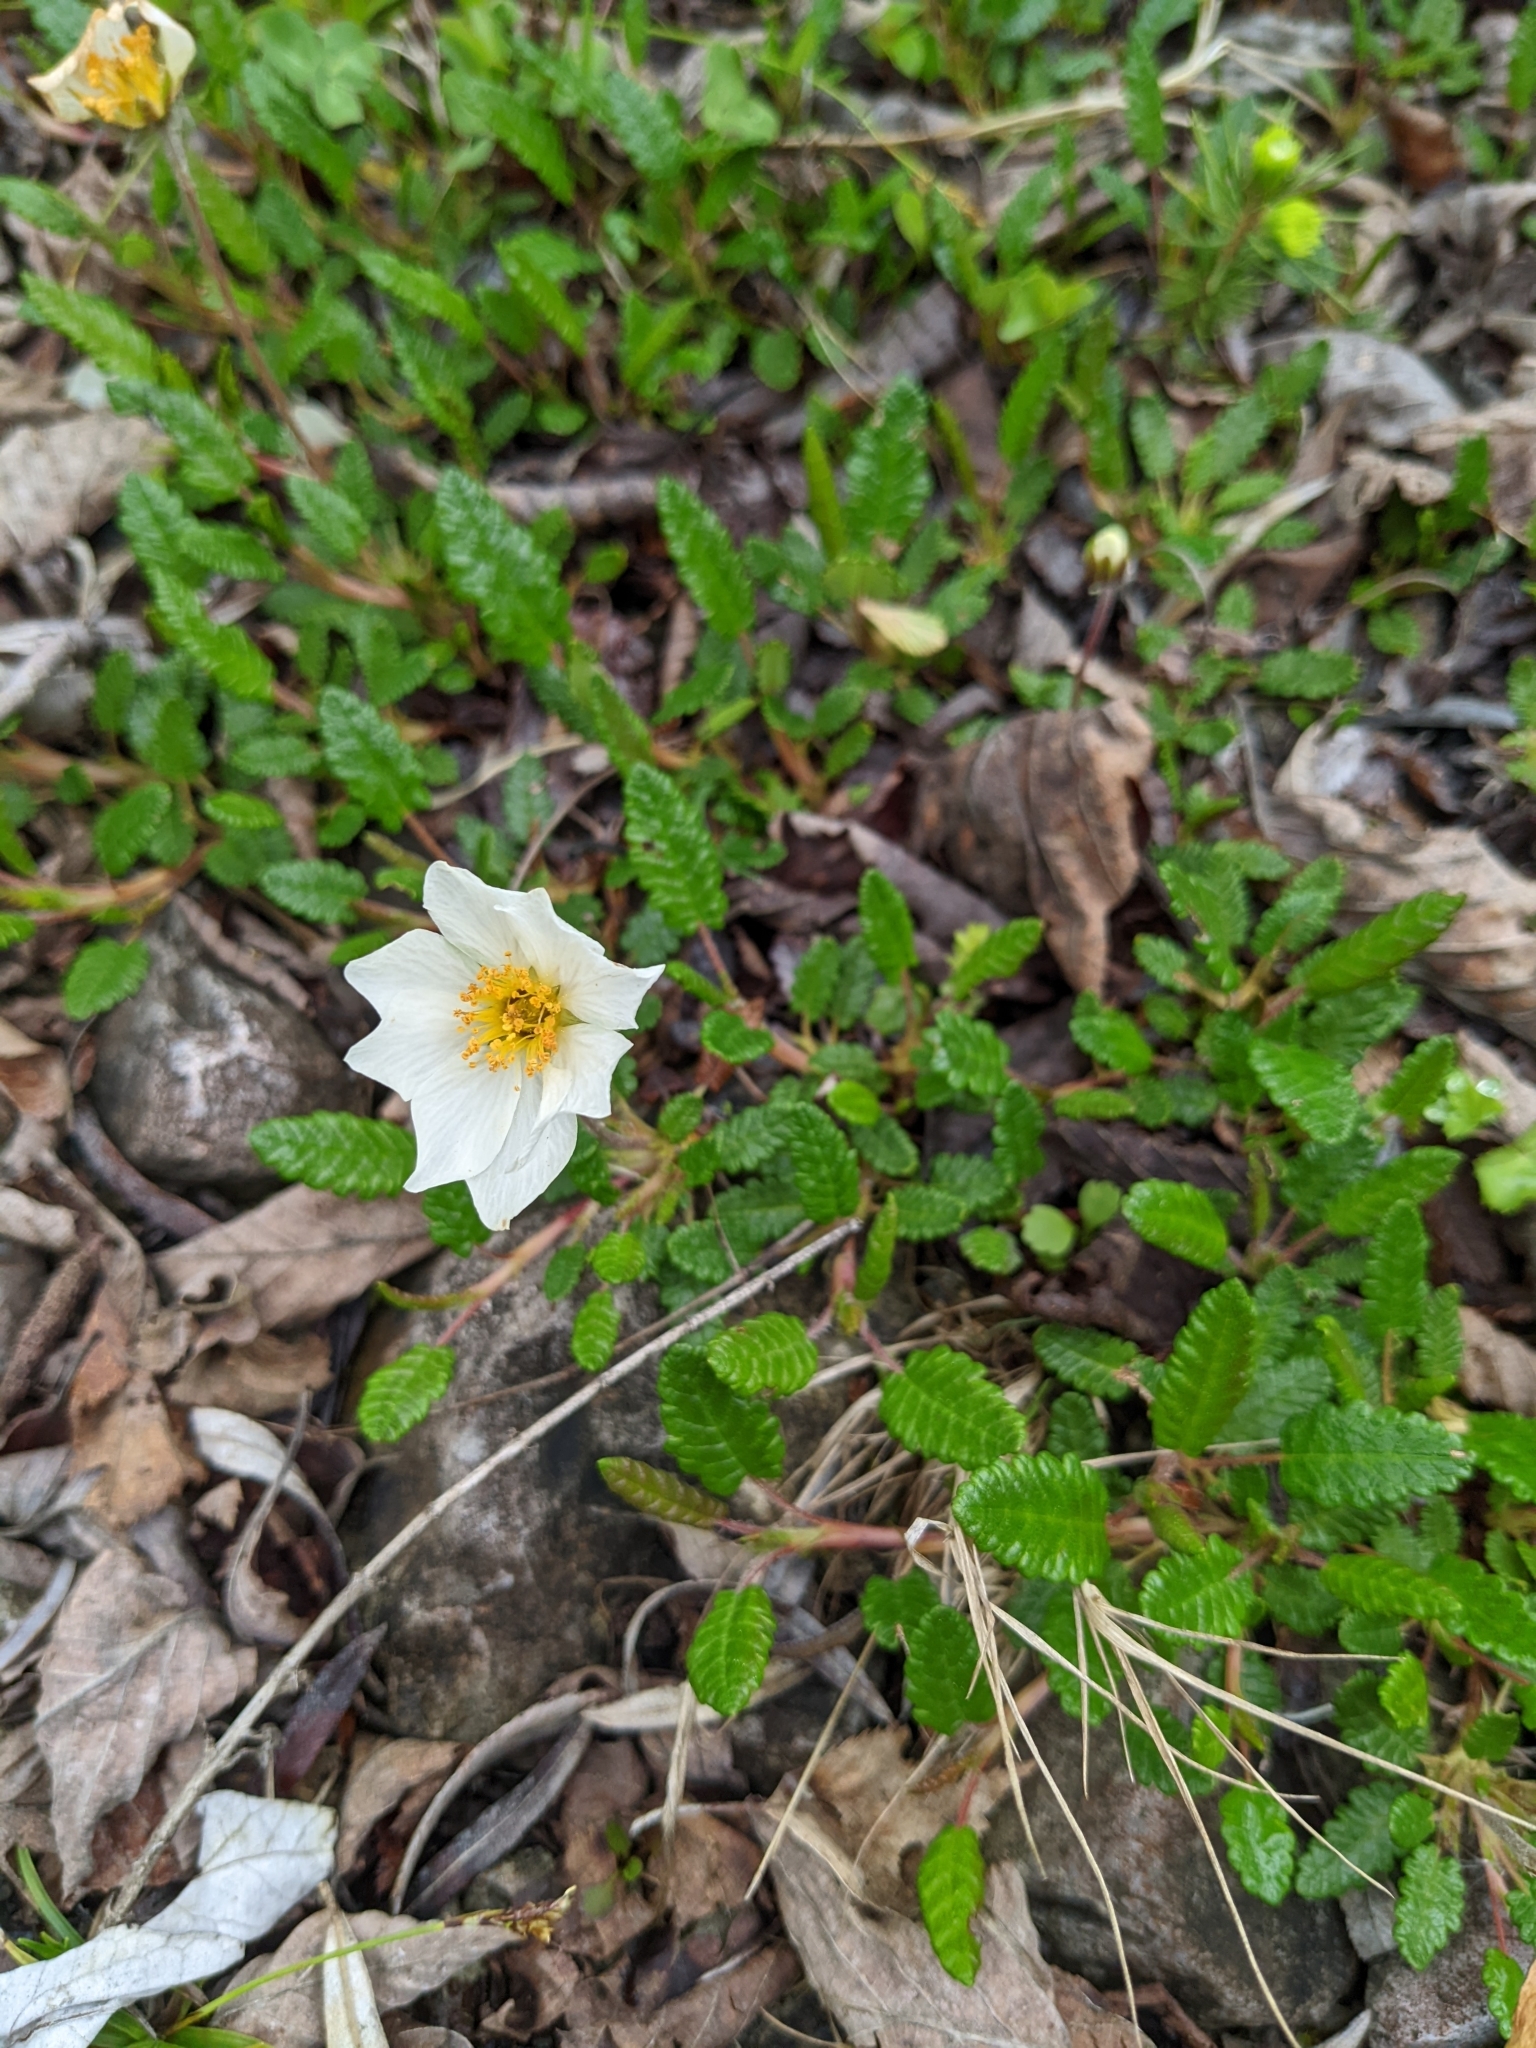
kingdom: Plantae
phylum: Tracheophyta
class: Magnoliopsida
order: Rosales
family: Rosaceae
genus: Dryas
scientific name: Dryas octopetala
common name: Eight-petal mountain-avens
